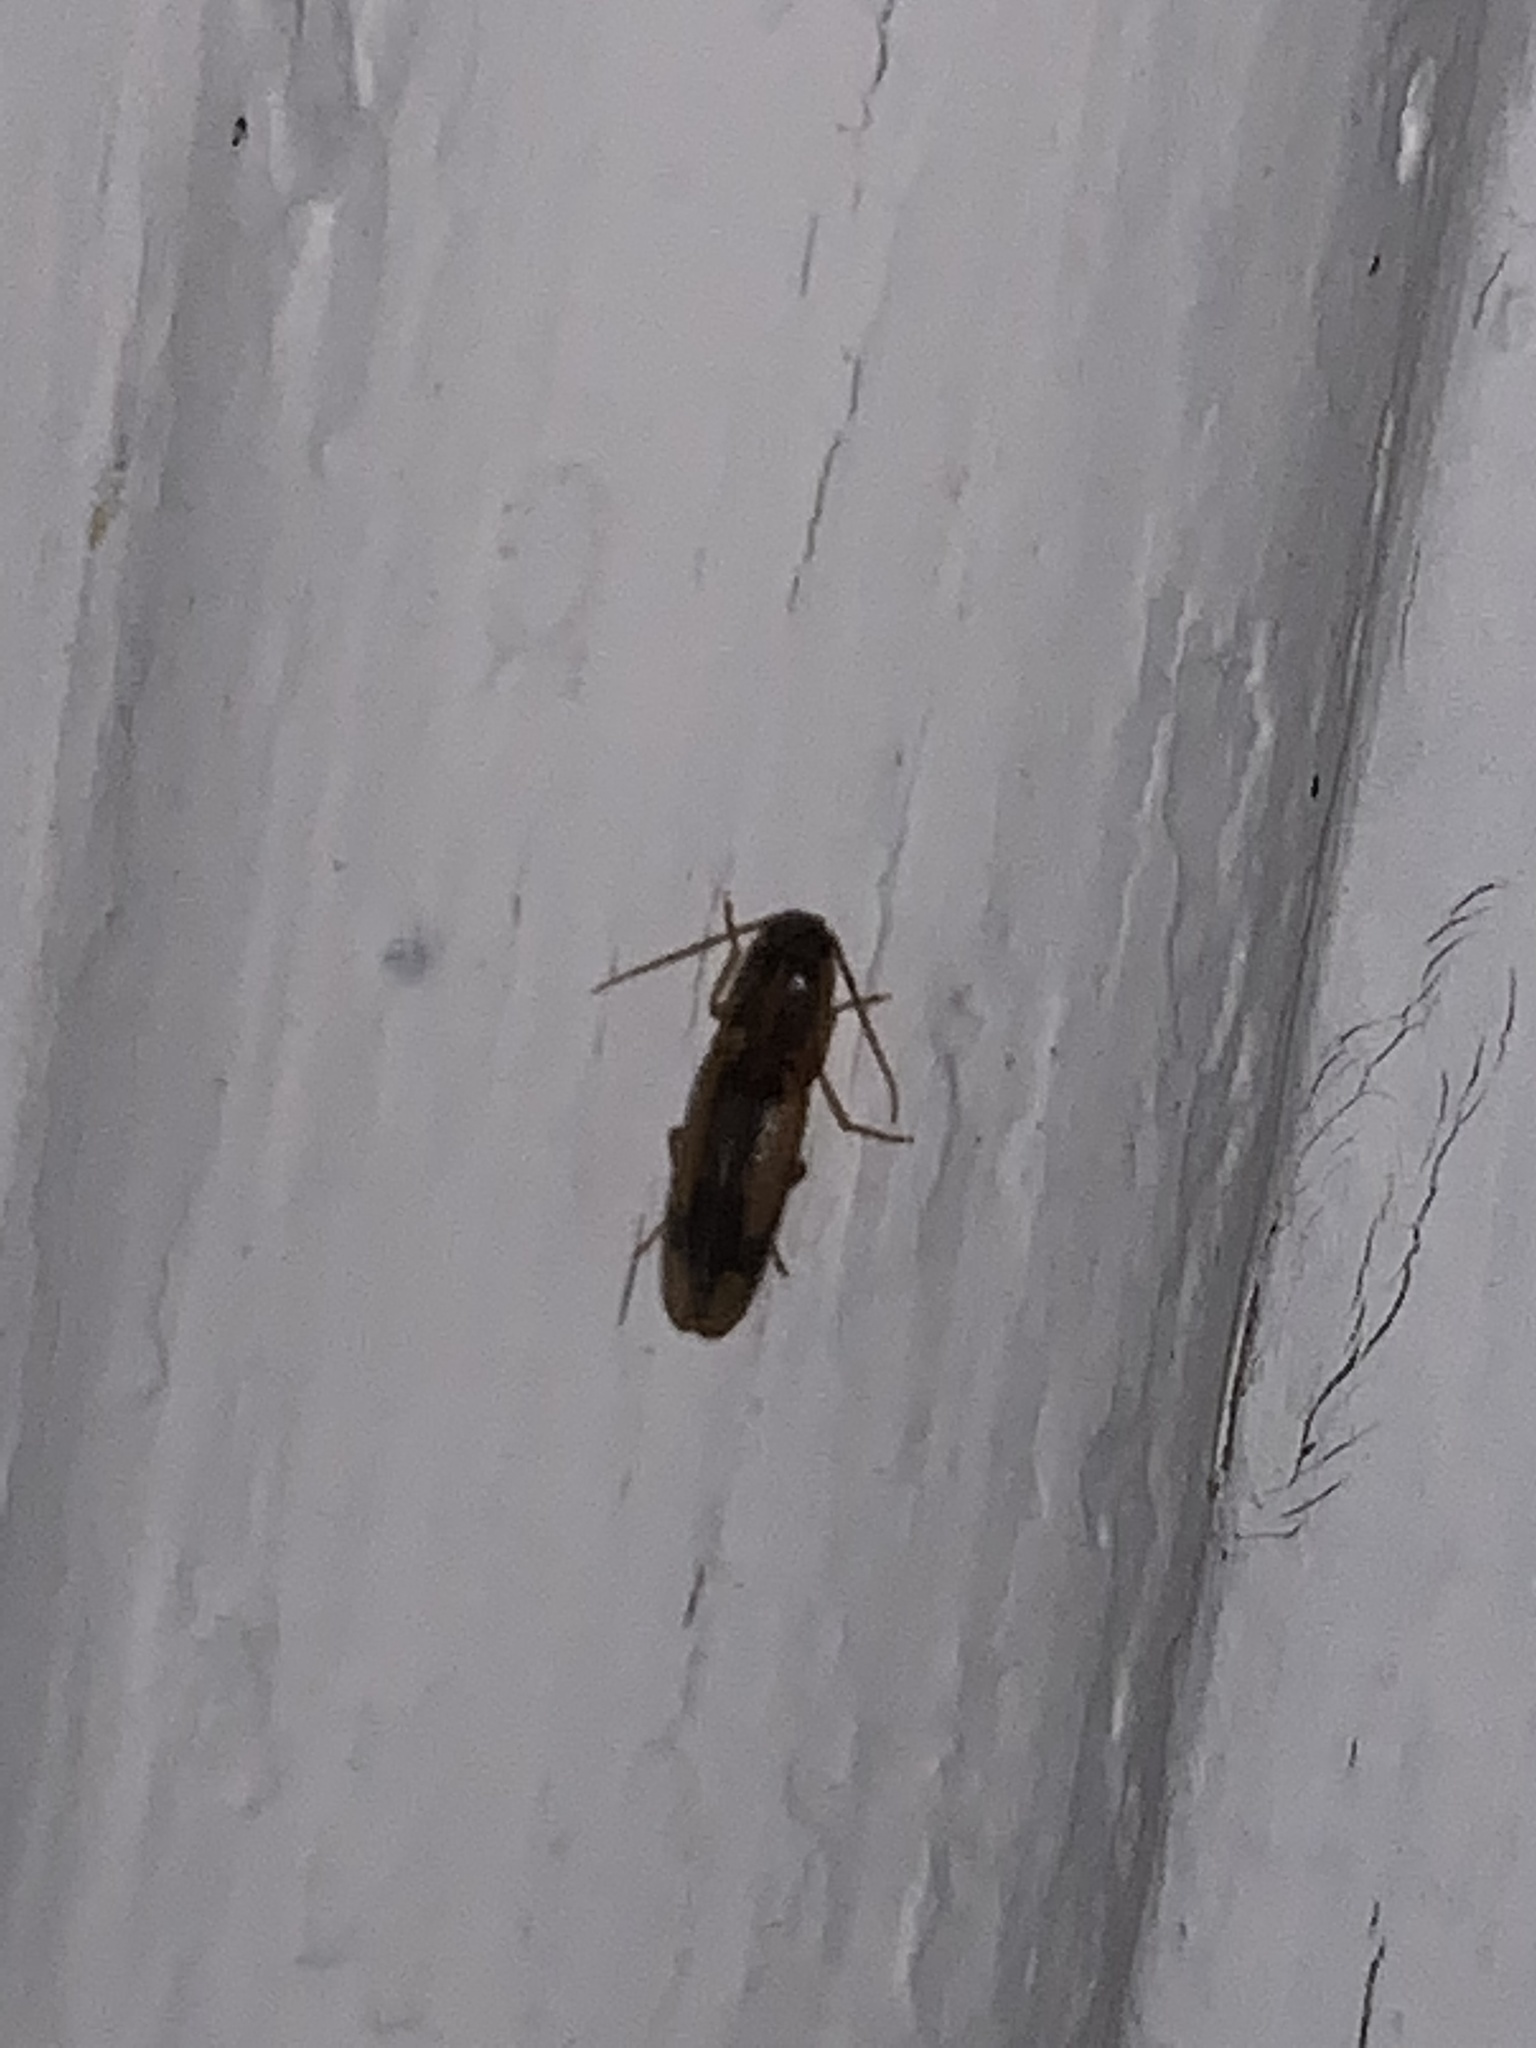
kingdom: Animalia
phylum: Arthropoda
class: Insecta
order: Coleoptera
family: Elateridae
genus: Monocrepidius
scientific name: Monocrepidius
